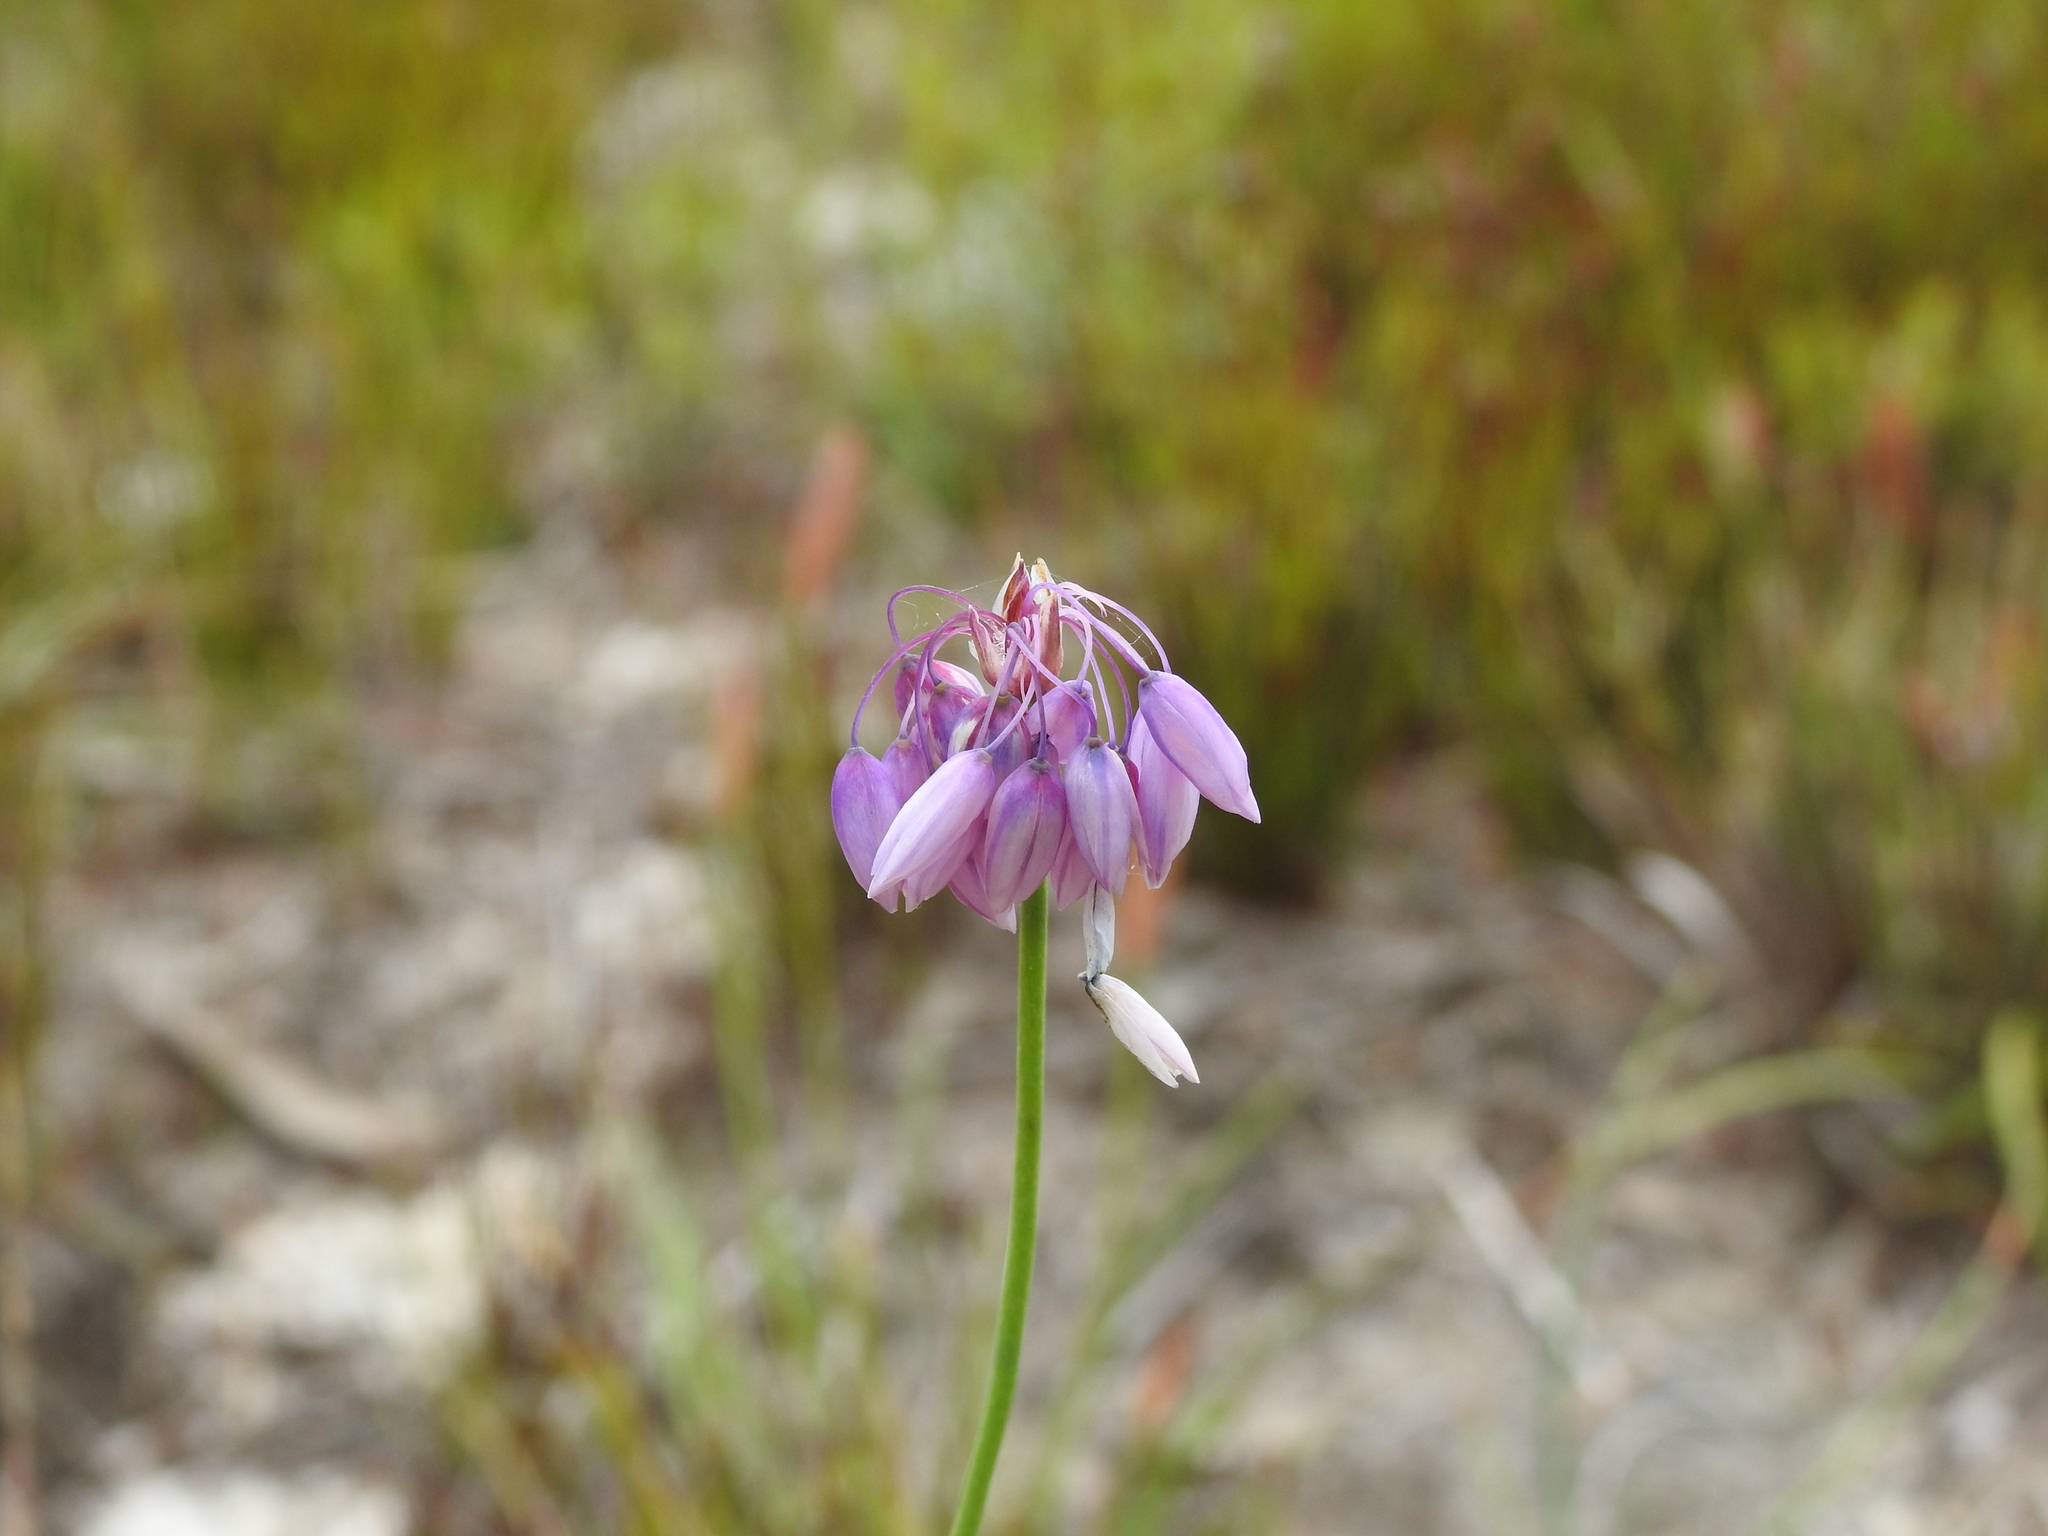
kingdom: Plantae
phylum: Tracheophyta
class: Liliopsida
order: Asparagales
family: Asparagaceae
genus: Sowerbaea
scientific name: Sowerbaea juncea
